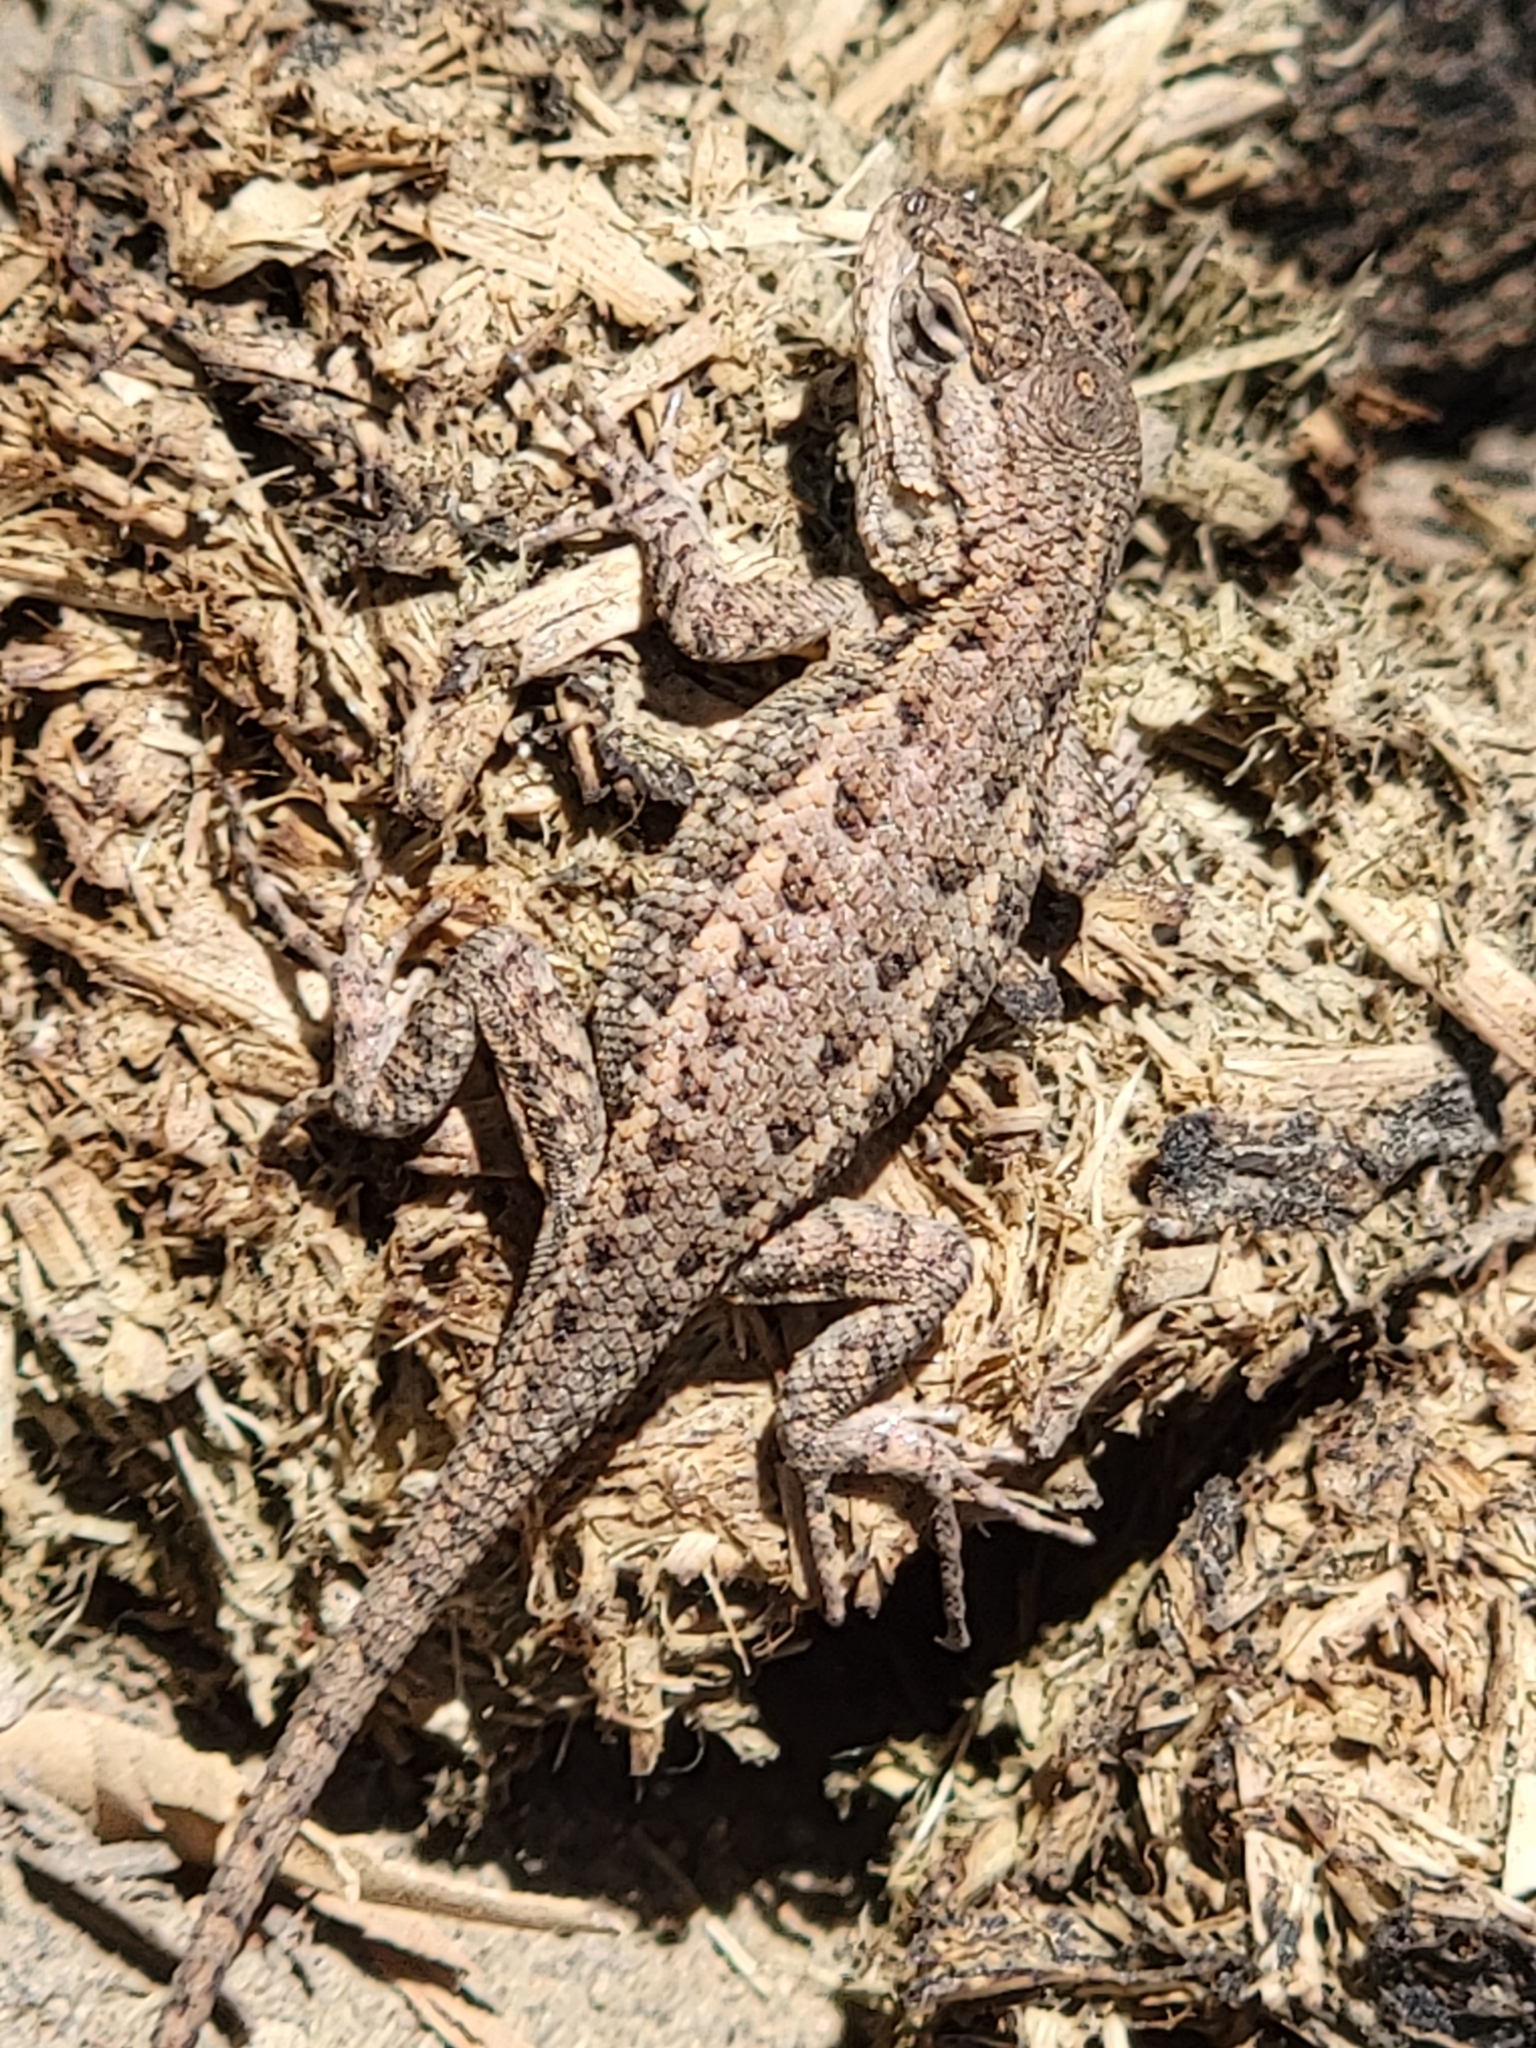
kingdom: Animalia
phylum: Chordata
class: Squamata
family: Phrynosomatidae
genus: Sceloporus
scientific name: Sceloporus occidentalis
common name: Western fence lizard
